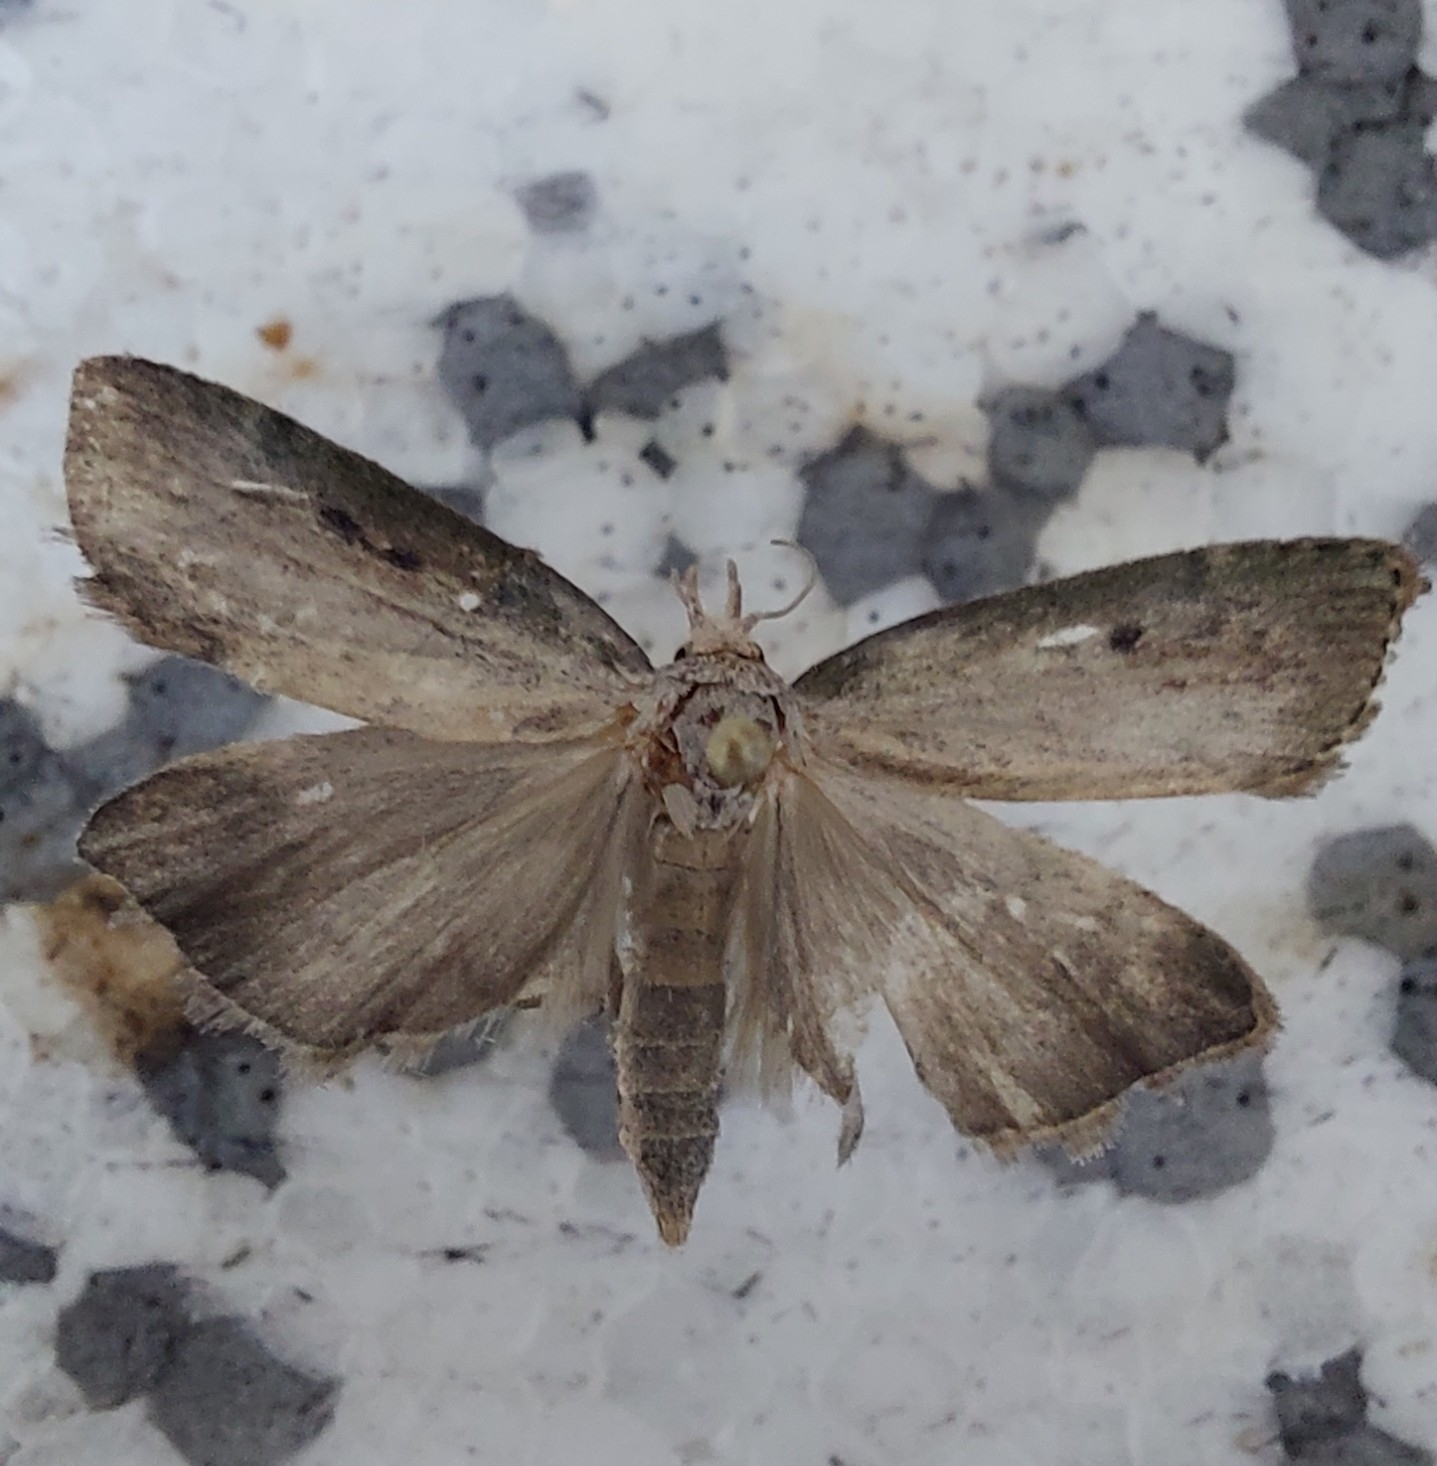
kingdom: Animalia
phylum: Arthropoda
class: Insecta
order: Lepidoptera
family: Pyralidae
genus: Aphomia
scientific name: Aphomia sociella
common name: Bee moth
